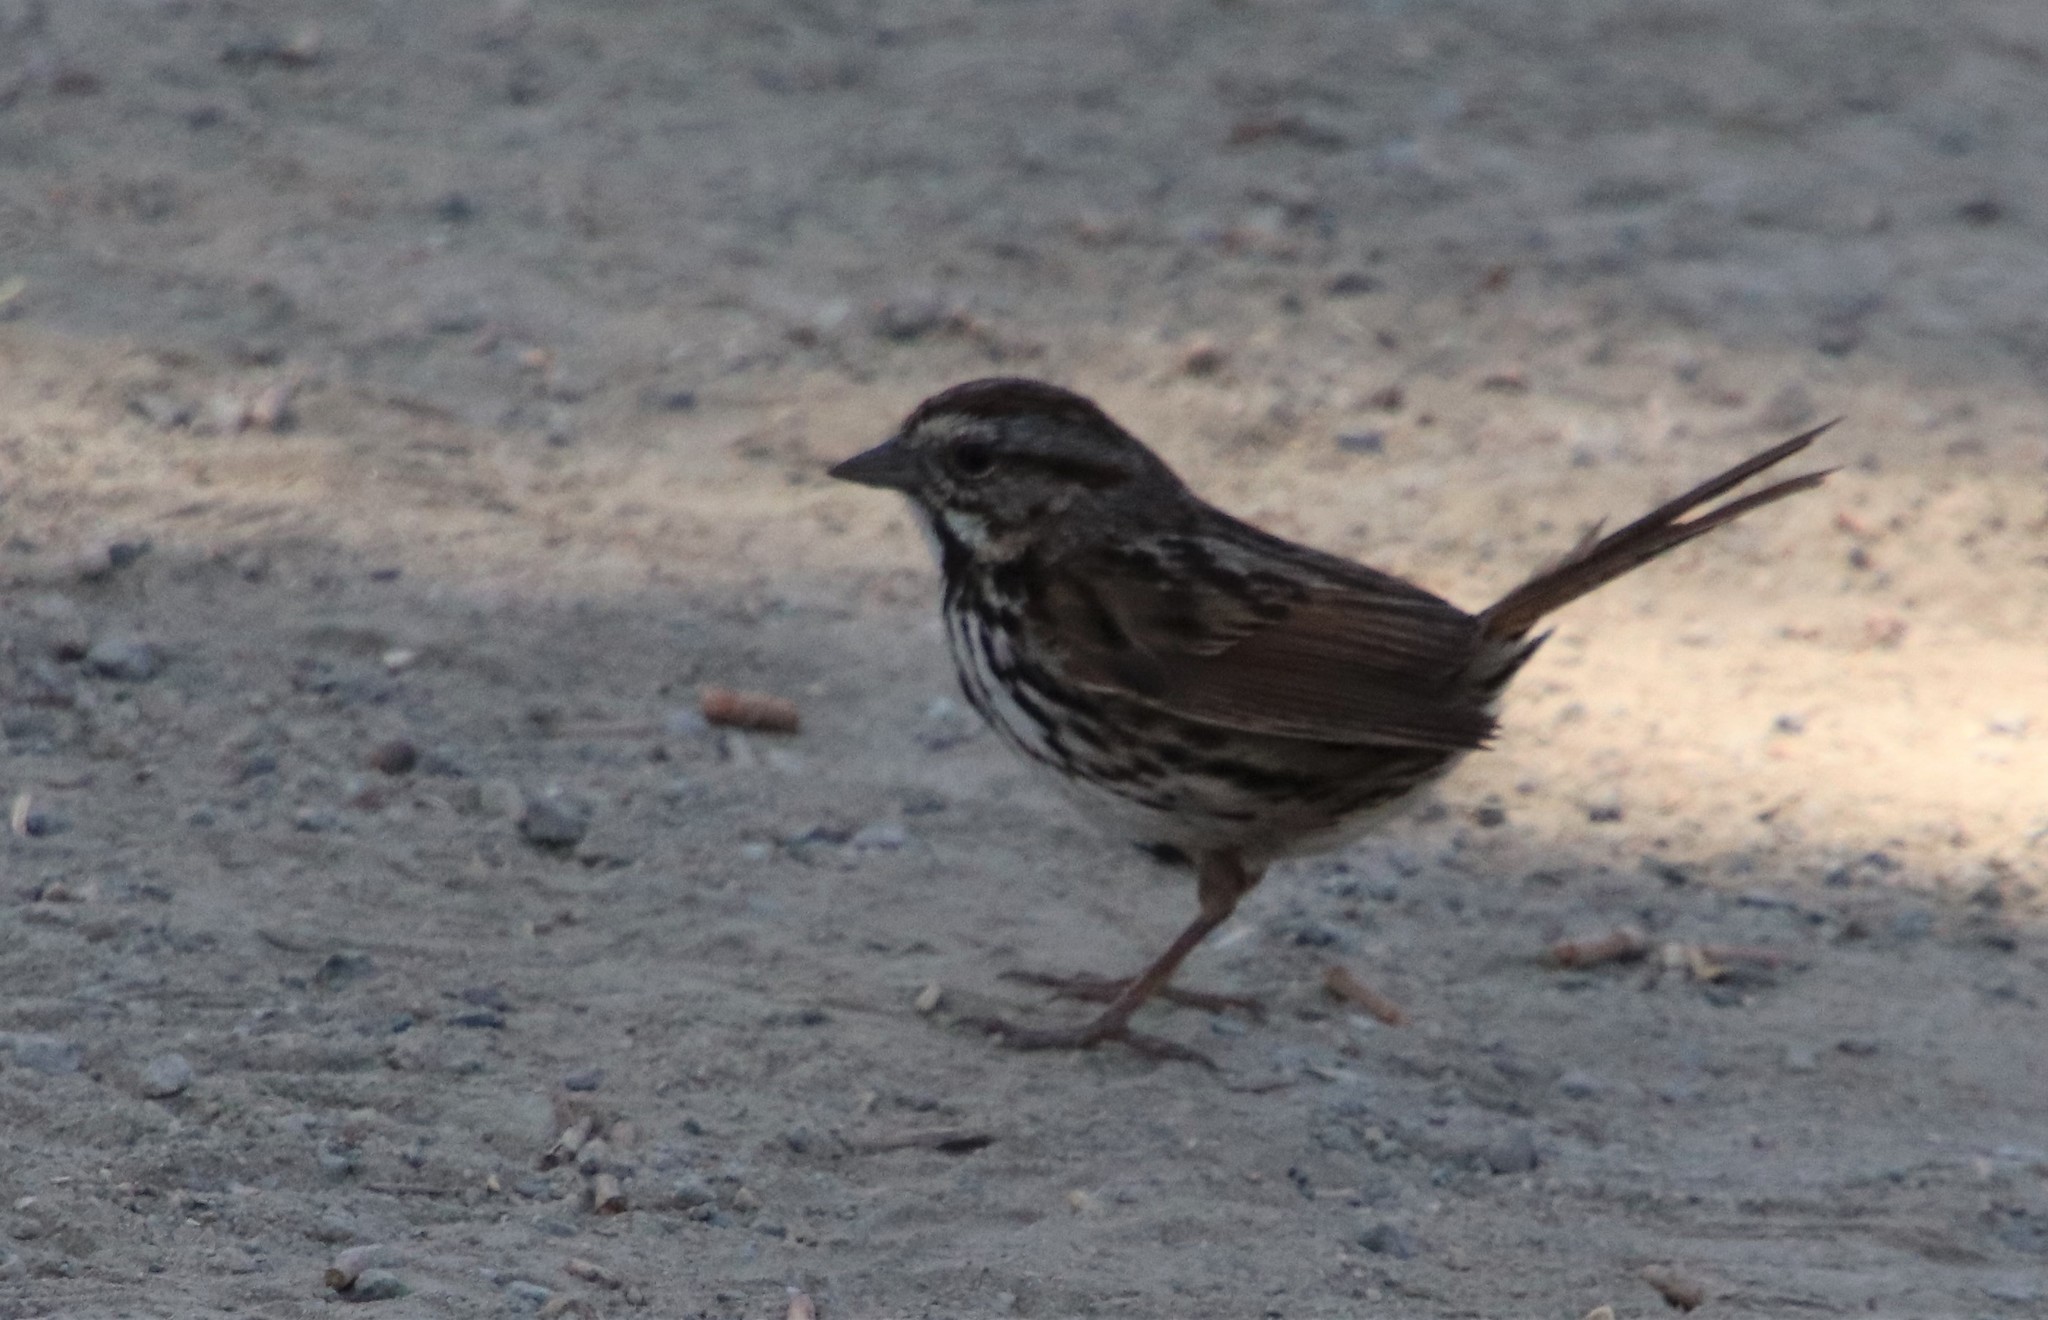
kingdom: Animalia
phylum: Chordata
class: Aves
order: Passeriformes
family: Passerellidae
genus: Melospiza
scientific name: Melospiza melodia
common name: Song sparrow
